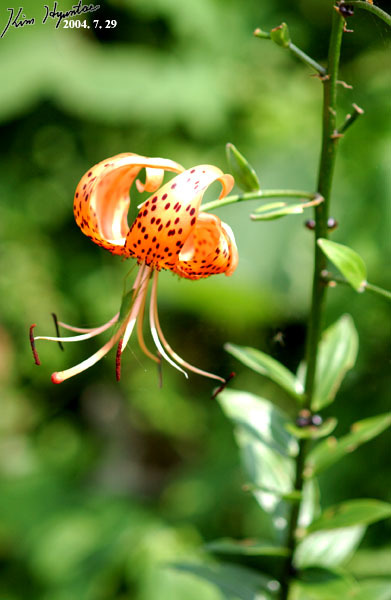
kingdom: Plantae
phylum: Tracheophyta
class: Liliopsida
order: Liliales
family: Liliaceae
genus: Lilium
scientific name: Lilium lancifolium
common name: Tiger lily
